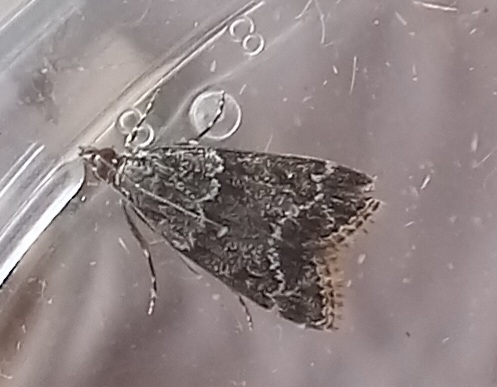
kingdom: Animalia
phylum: Arthropoda
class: Insecta
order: Lepidoptera
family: Crambidae
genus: Eudonia
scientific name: Eudonia mercurella
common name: Small grey
